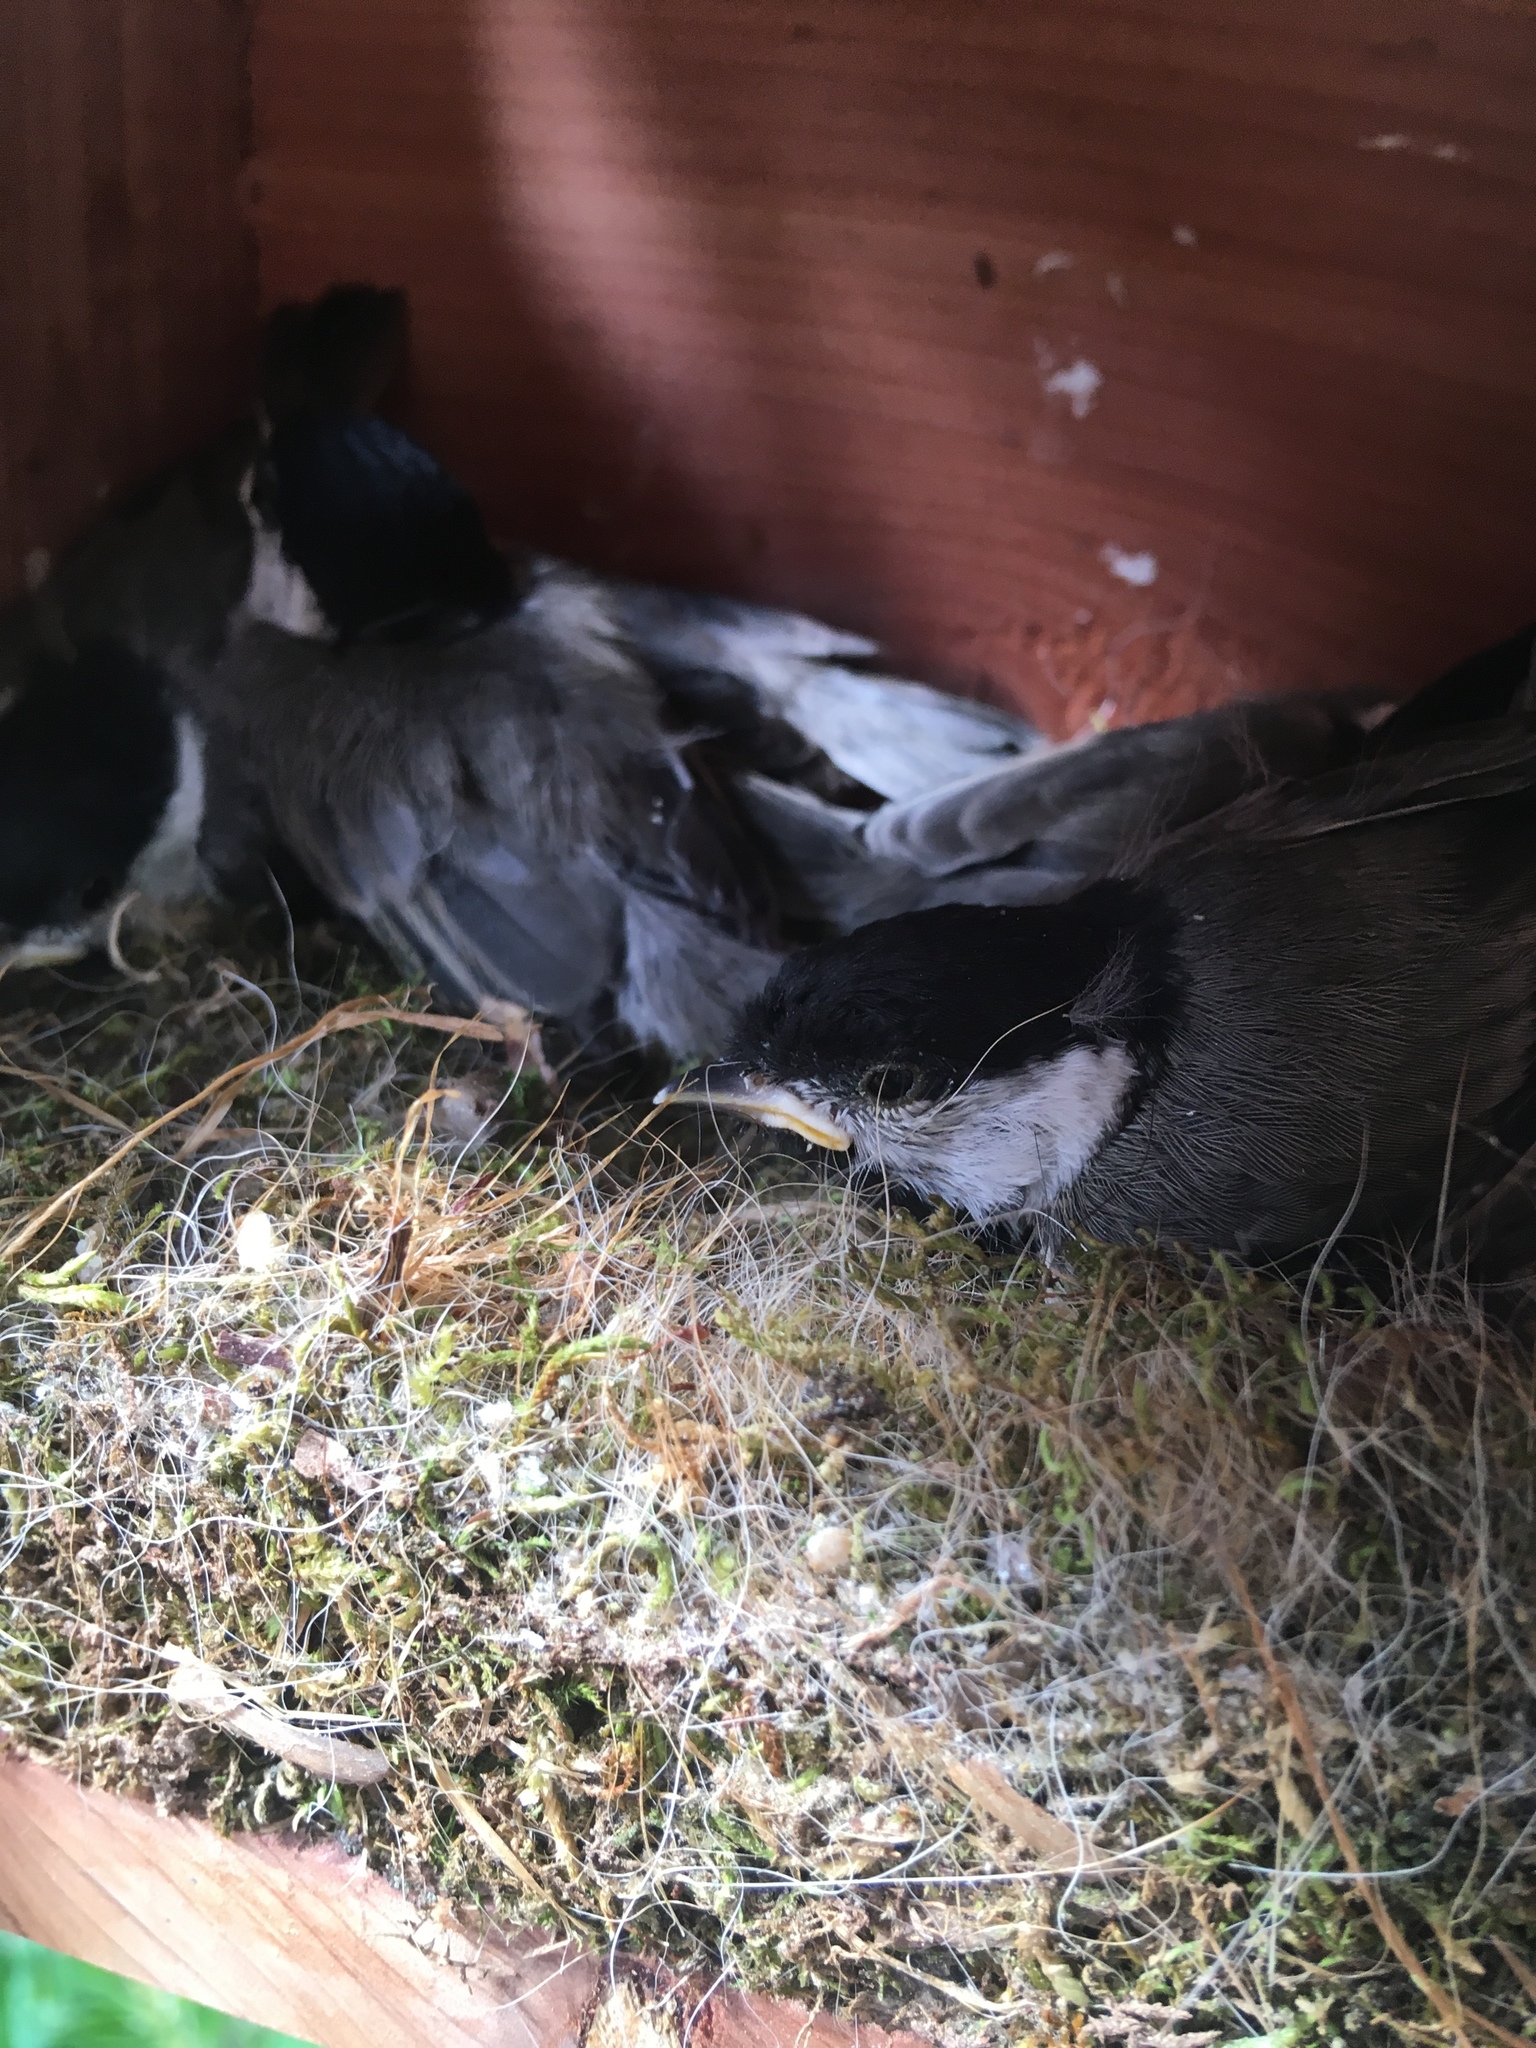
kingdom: Animalia
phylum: Chordata
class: Aves
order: Passeriformes
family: Paridae
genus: Poecile
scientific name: Poecile carolinensis
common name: Carolina chickadee
